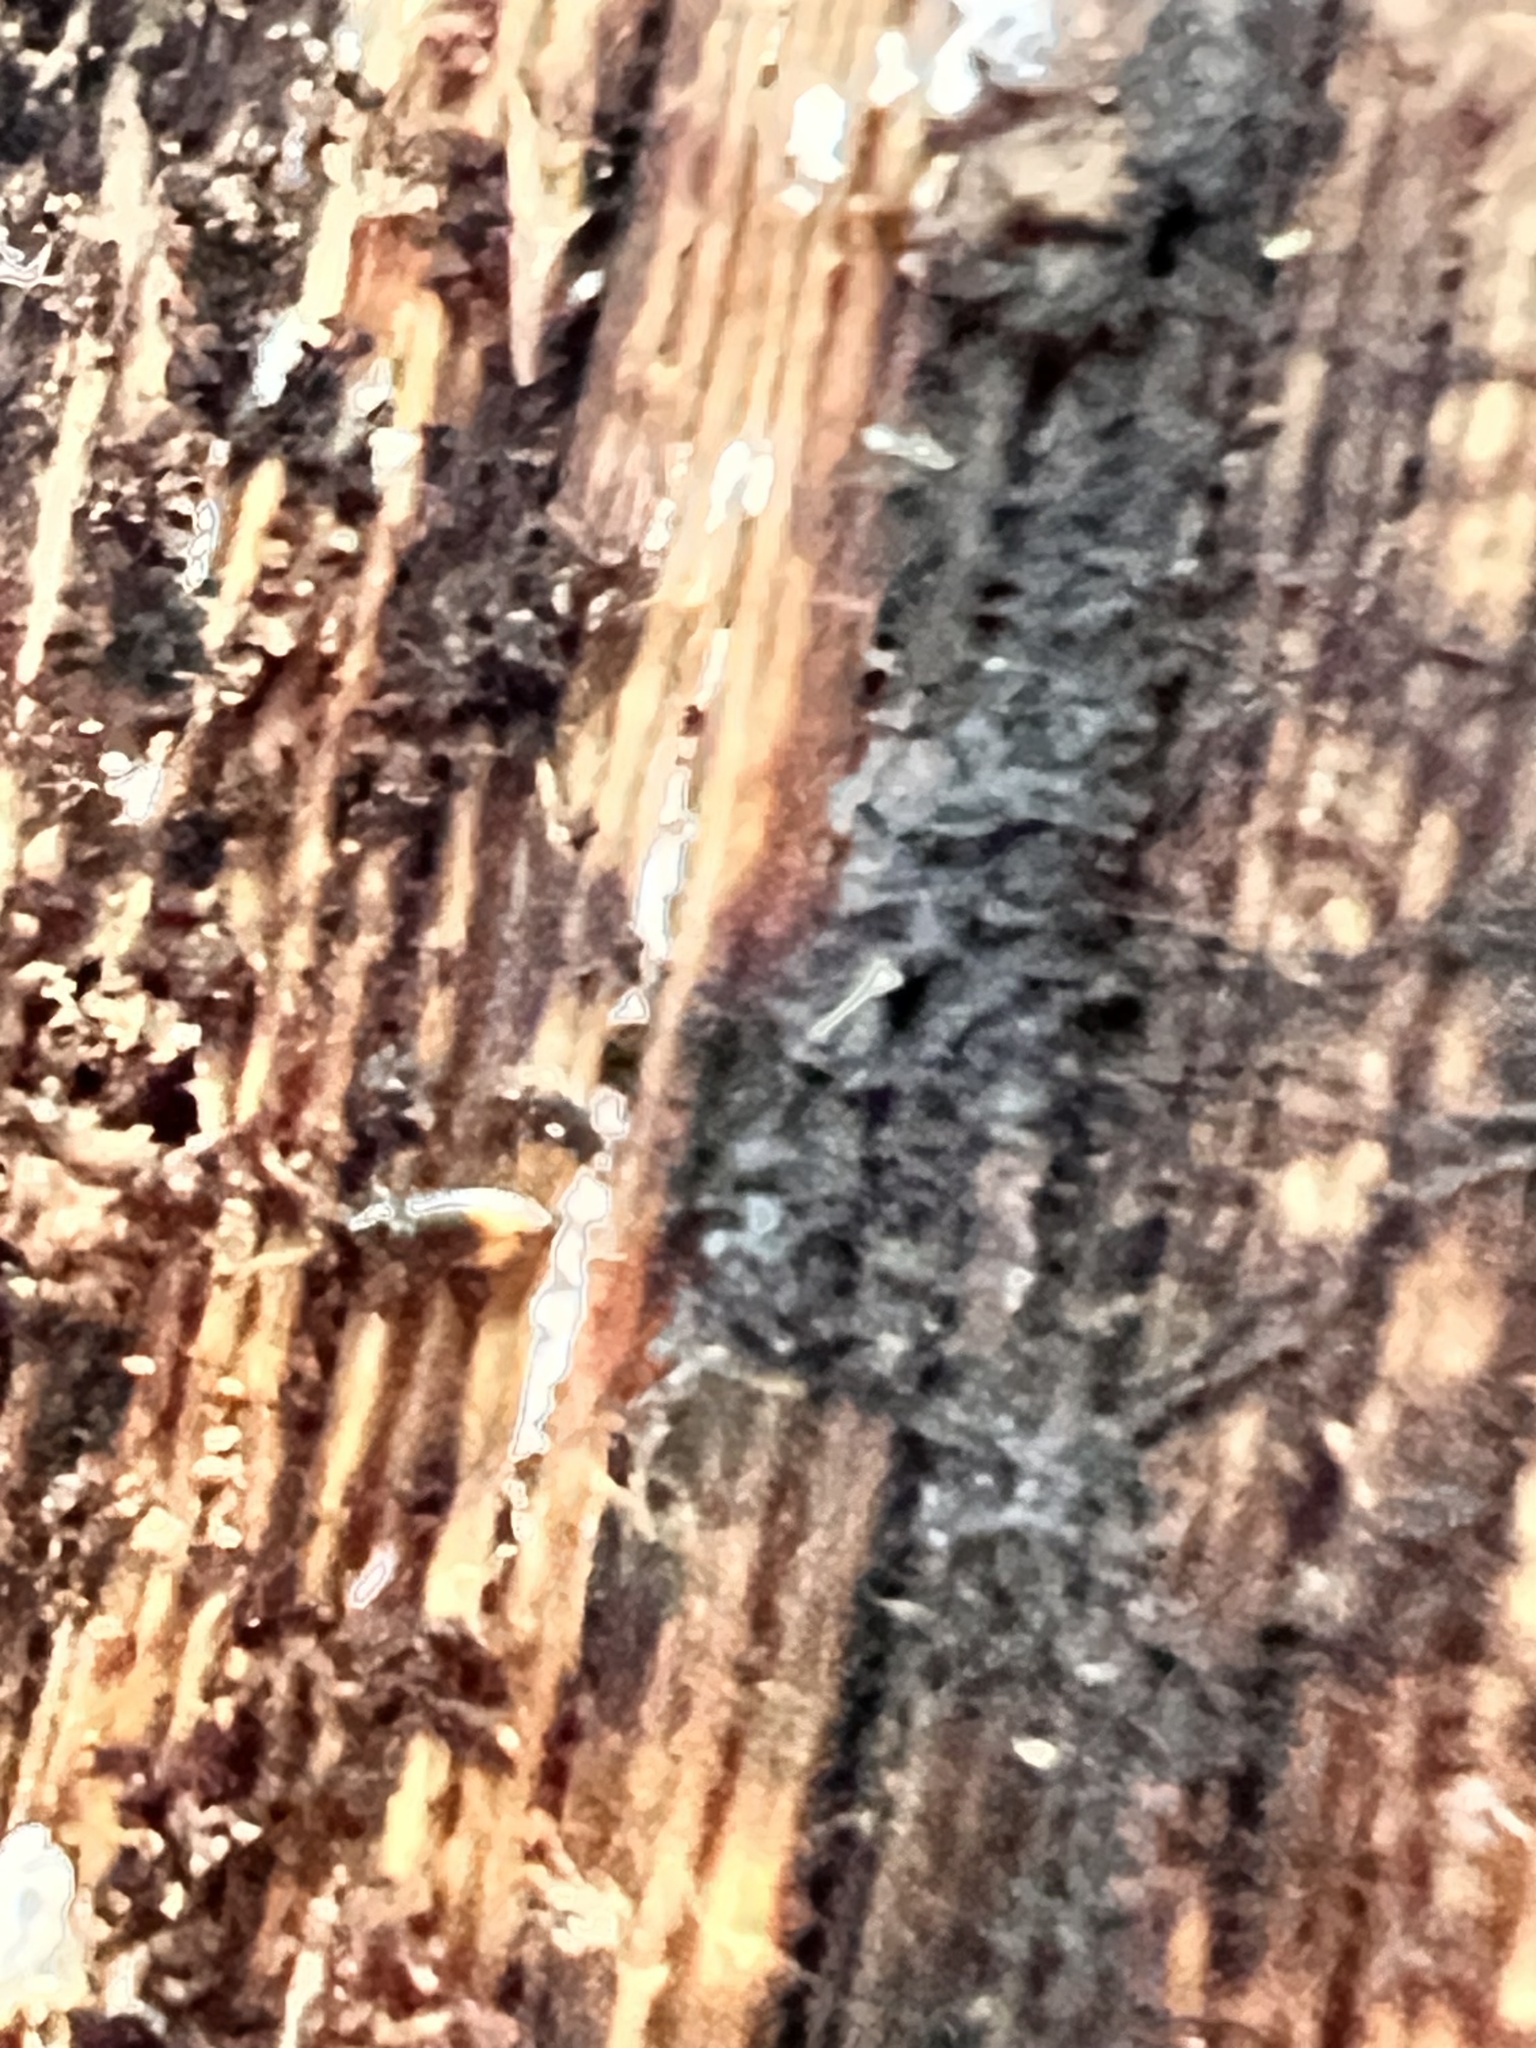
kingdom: Animalia
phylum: Arthropoda
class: Insecta
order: Coleoptera
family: Carabidae
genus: Mioptachys
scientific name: Mioptachys flavicauda
